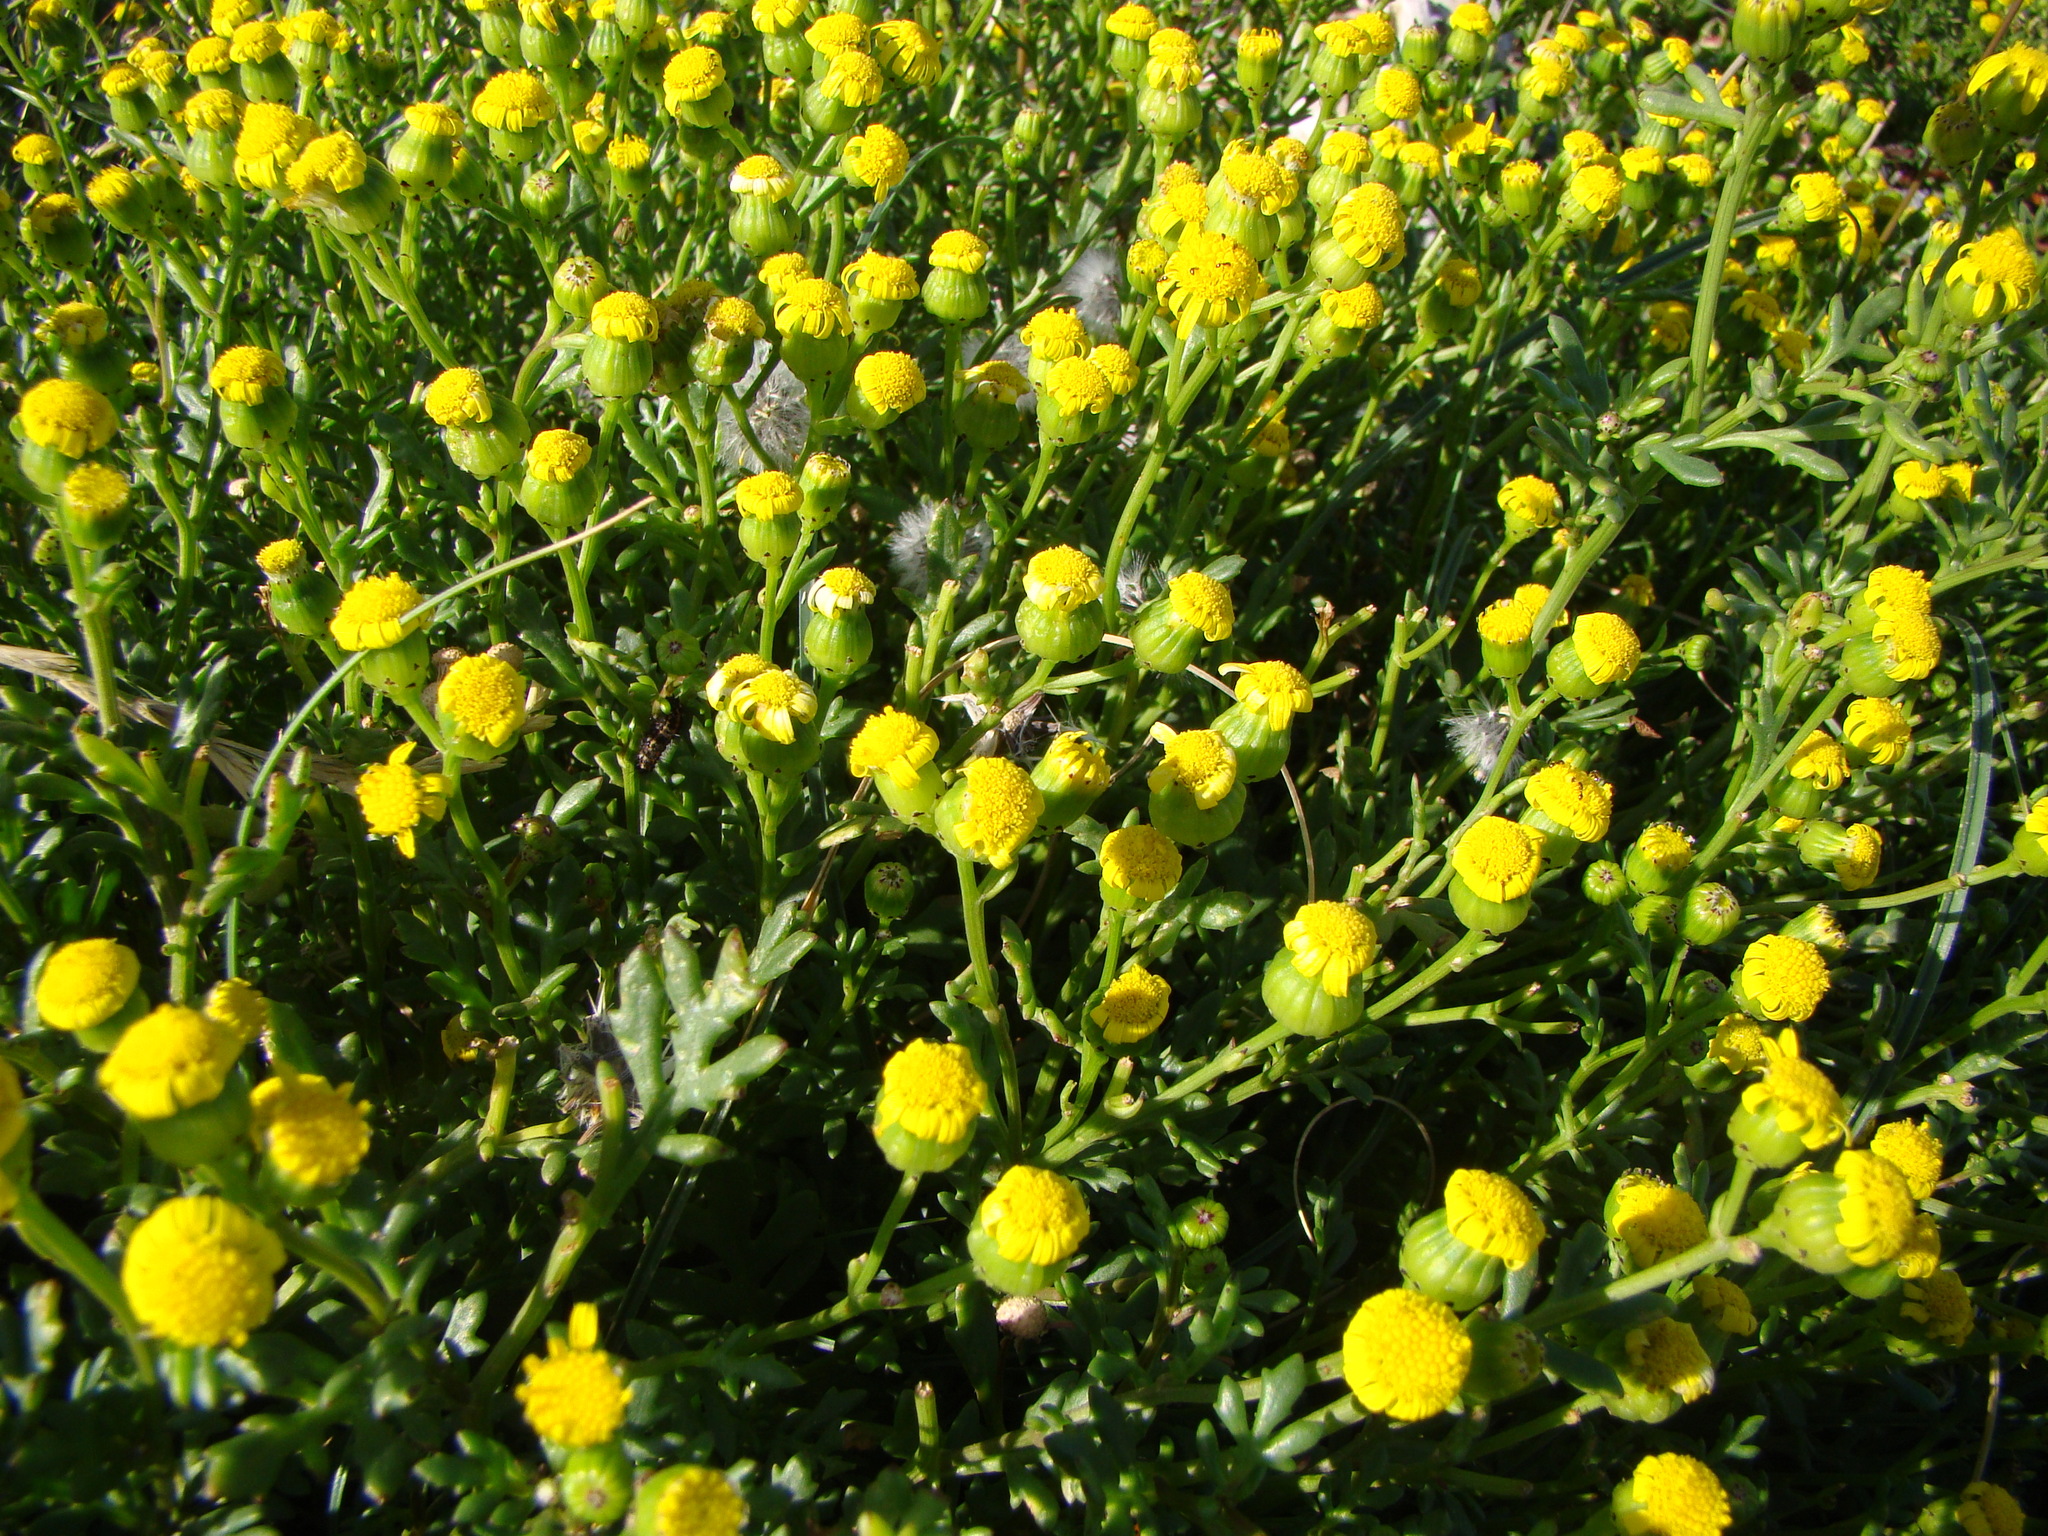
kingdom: Plantae
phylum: Tracheophyta
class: Magnoliopsida
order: Asterales
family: Asteraceae
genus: Senecio
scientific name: Senecio lautus
